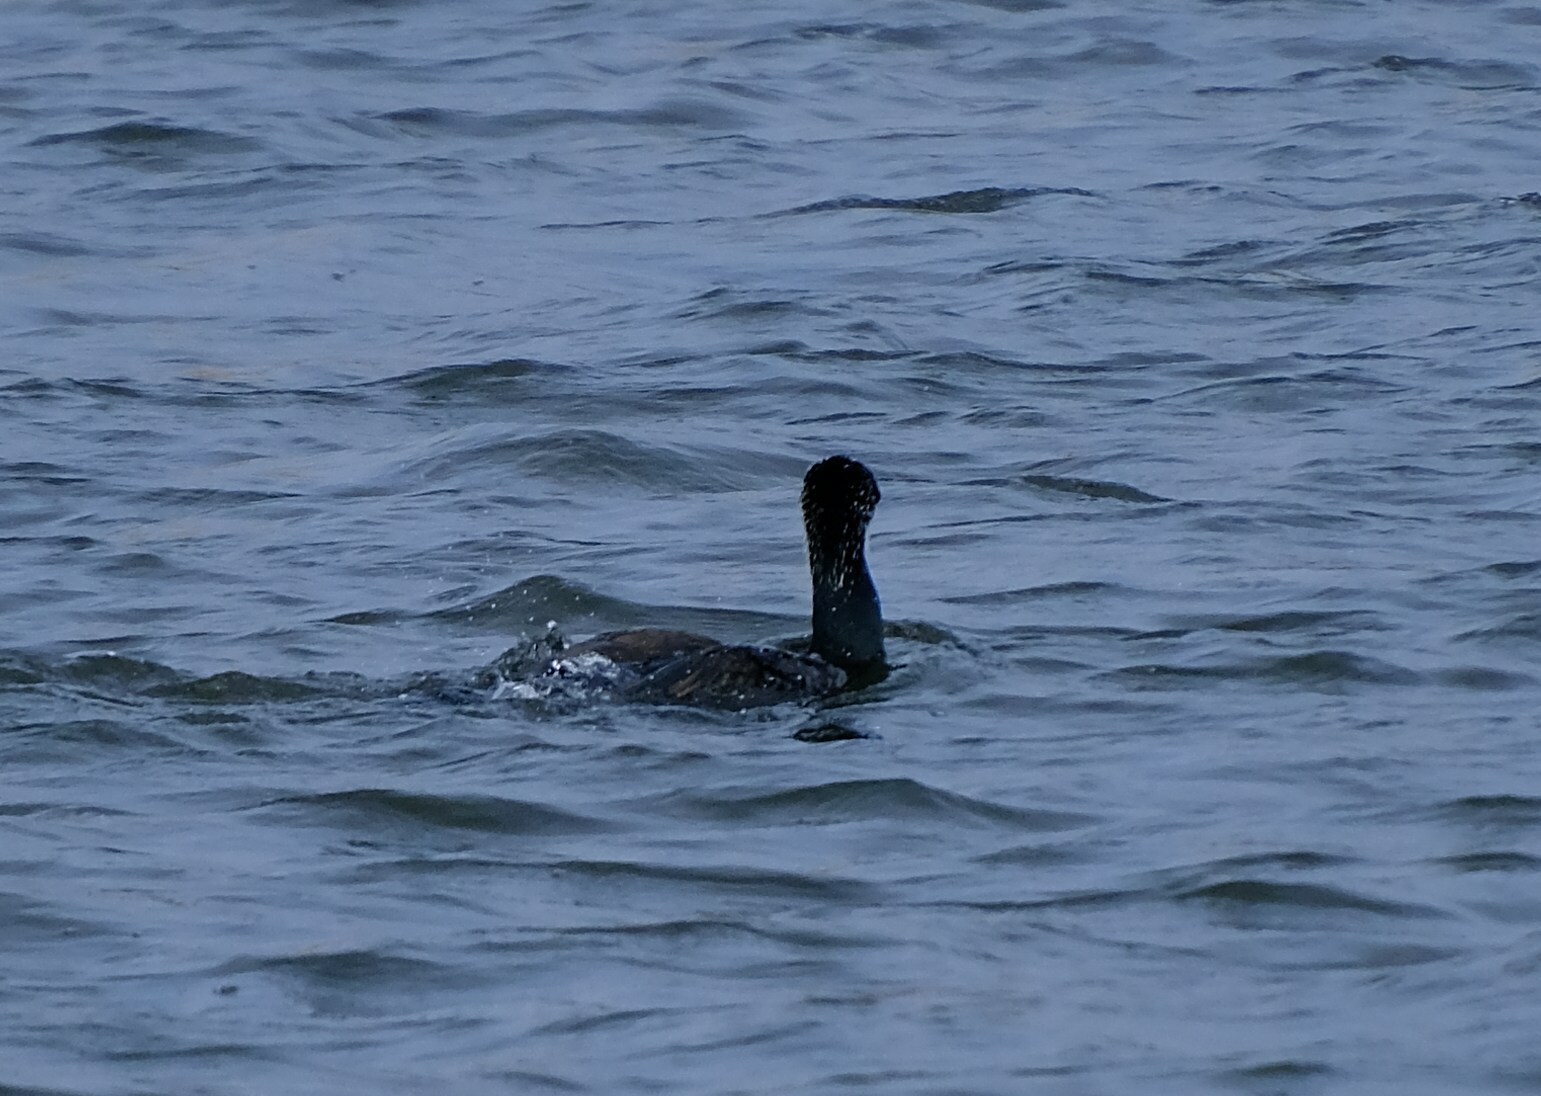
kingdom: Animalia
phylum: Chordata
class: Aves
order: Suliformes
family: Phalacrocoracidae
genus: Phalacrocorax
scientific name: Phalacrocorax carbo
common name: Great cormorant
